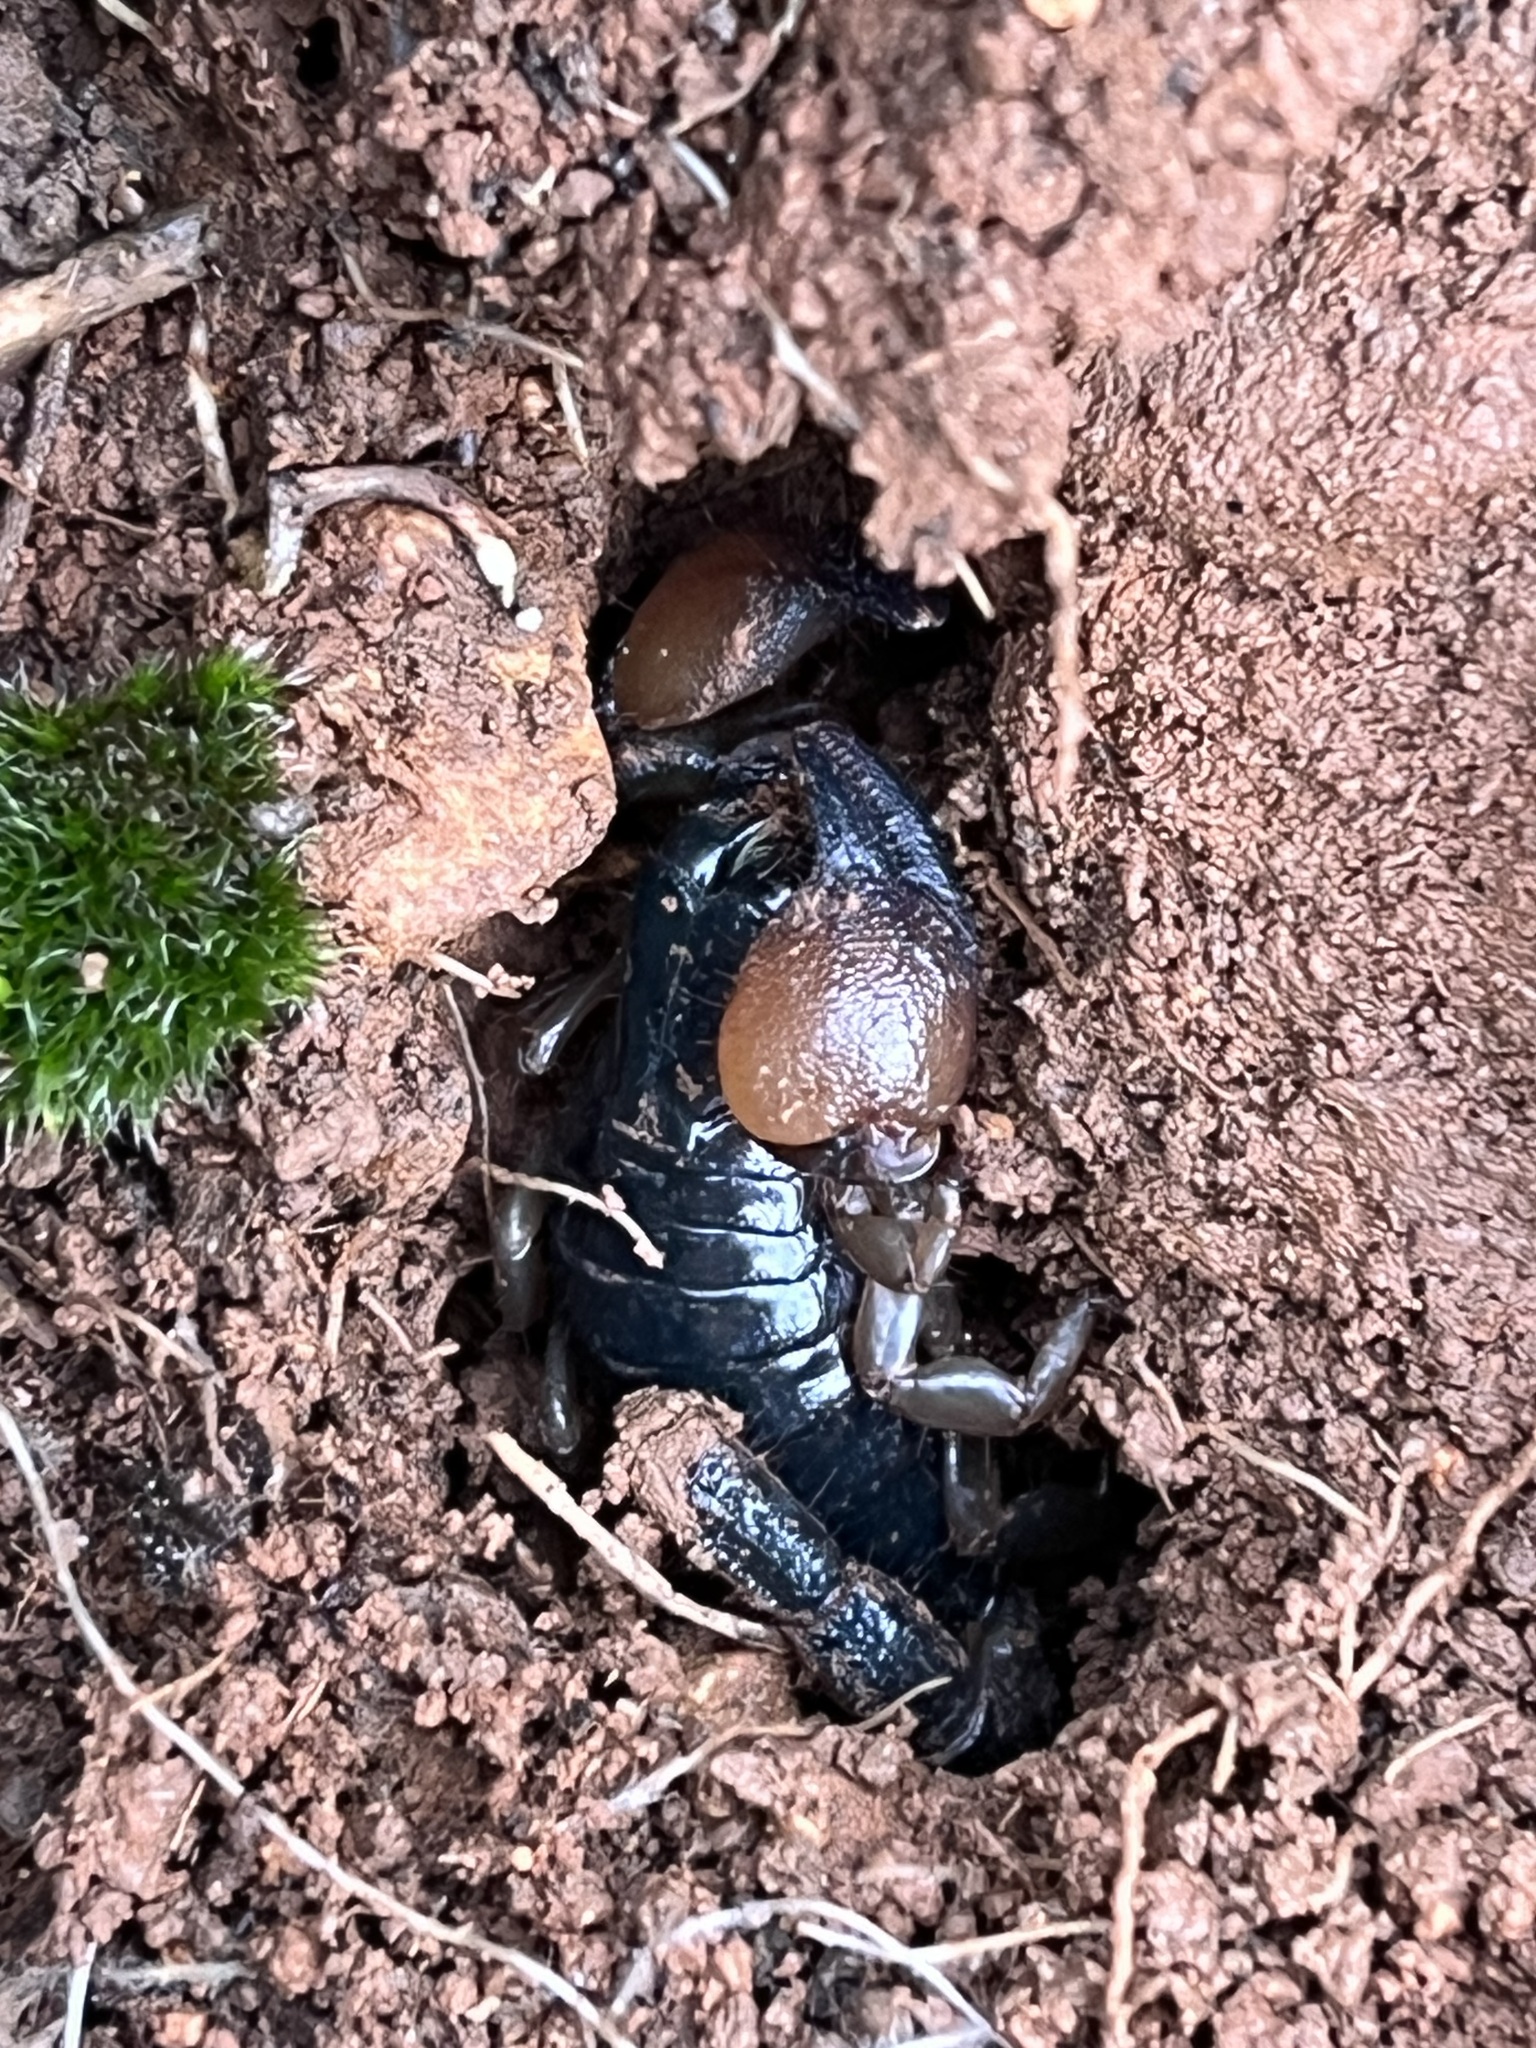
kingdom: Animalia
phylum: Arthropoda
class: Arachnida
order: Scorpiones
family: Scorpionidae
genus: Scorpio
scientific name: Scorpio fuscus
